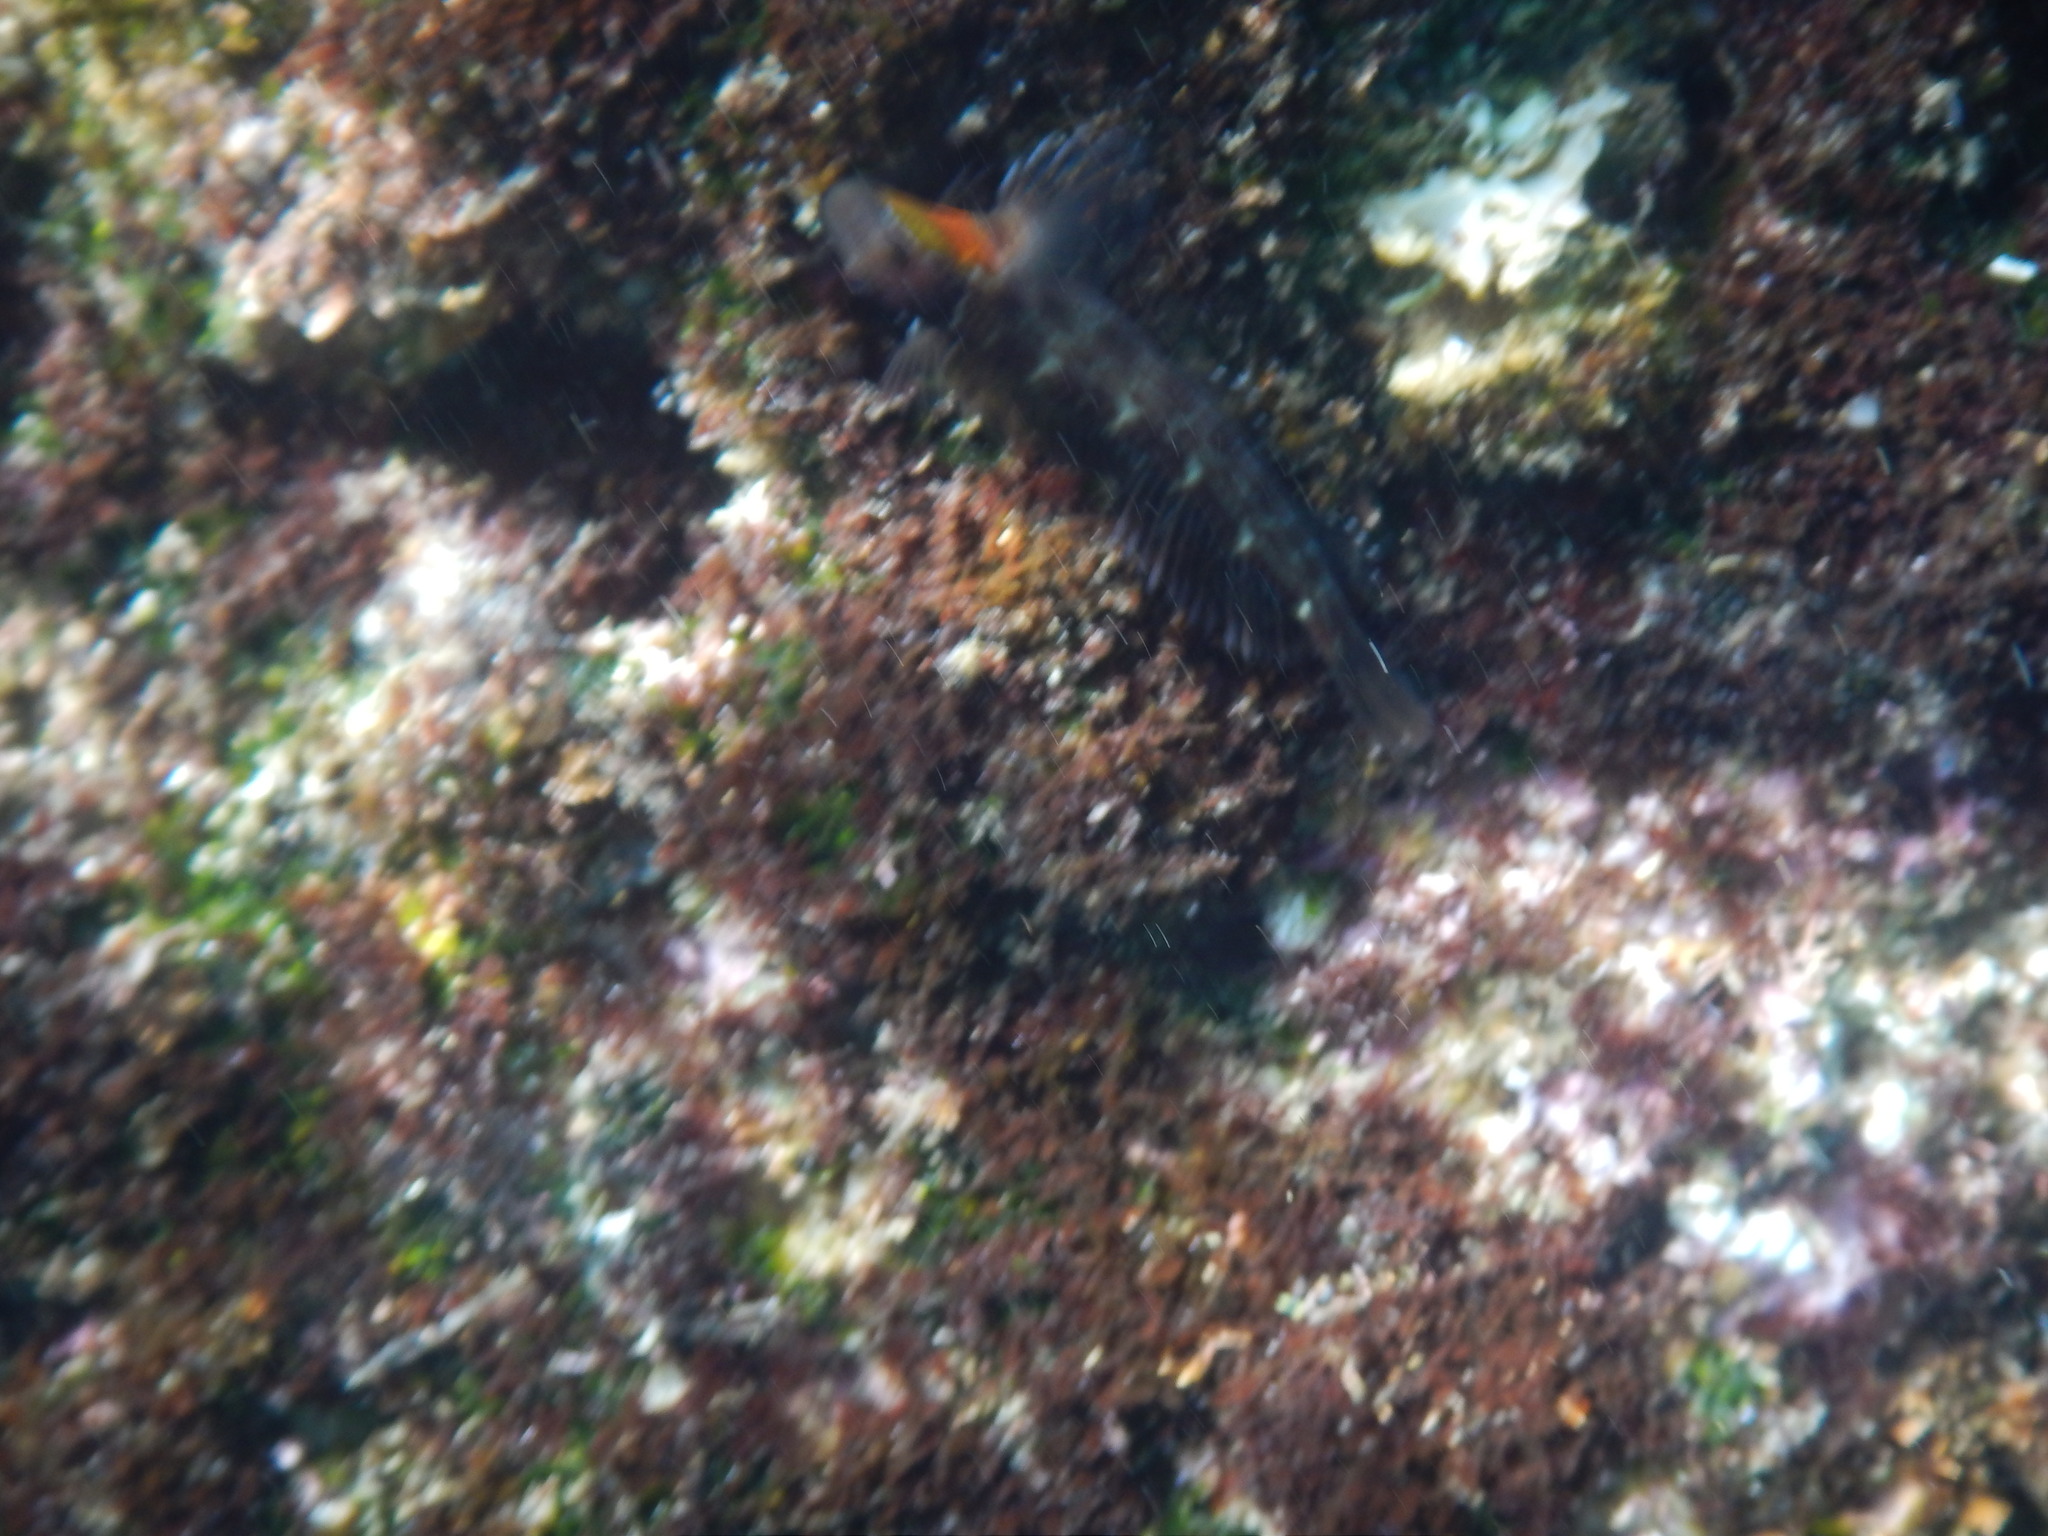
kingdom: Animalia
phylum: Chordata
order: Perciformes
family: Blenniidae
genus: Microlipophrys
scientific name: Microlipophrys canevae
